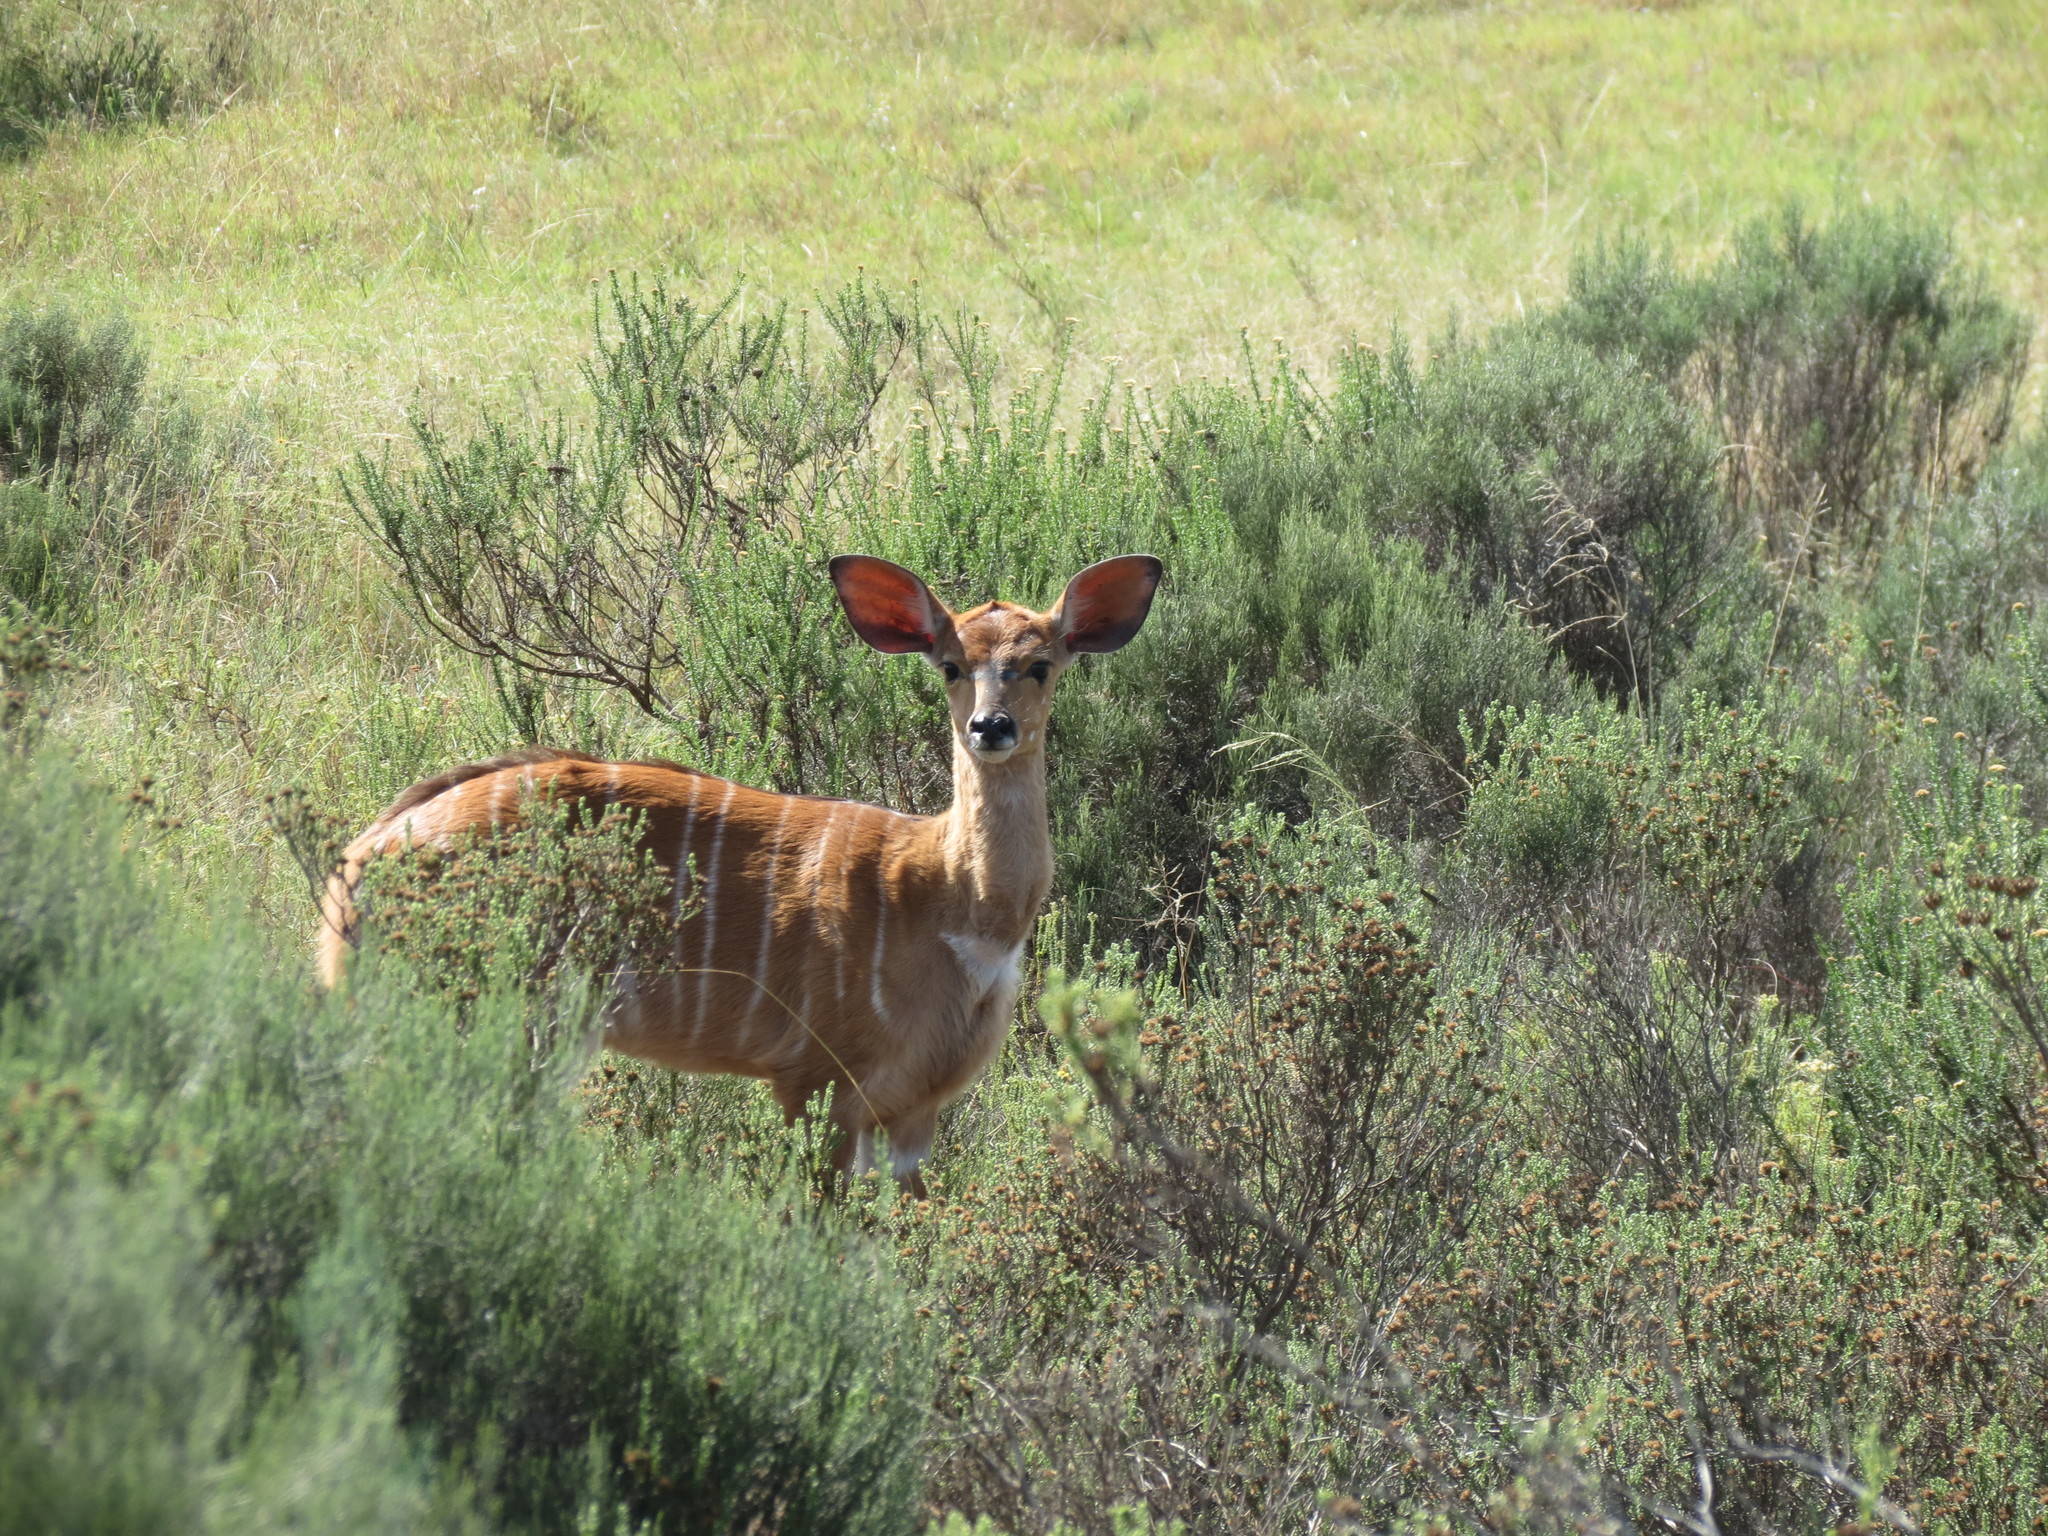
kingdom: Animalia
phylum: Chordata
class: Mammalia
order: Artiodactyla
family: Bovidae
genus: Tragelaphus
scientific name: Tragelaphus angasii
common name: Nyala
